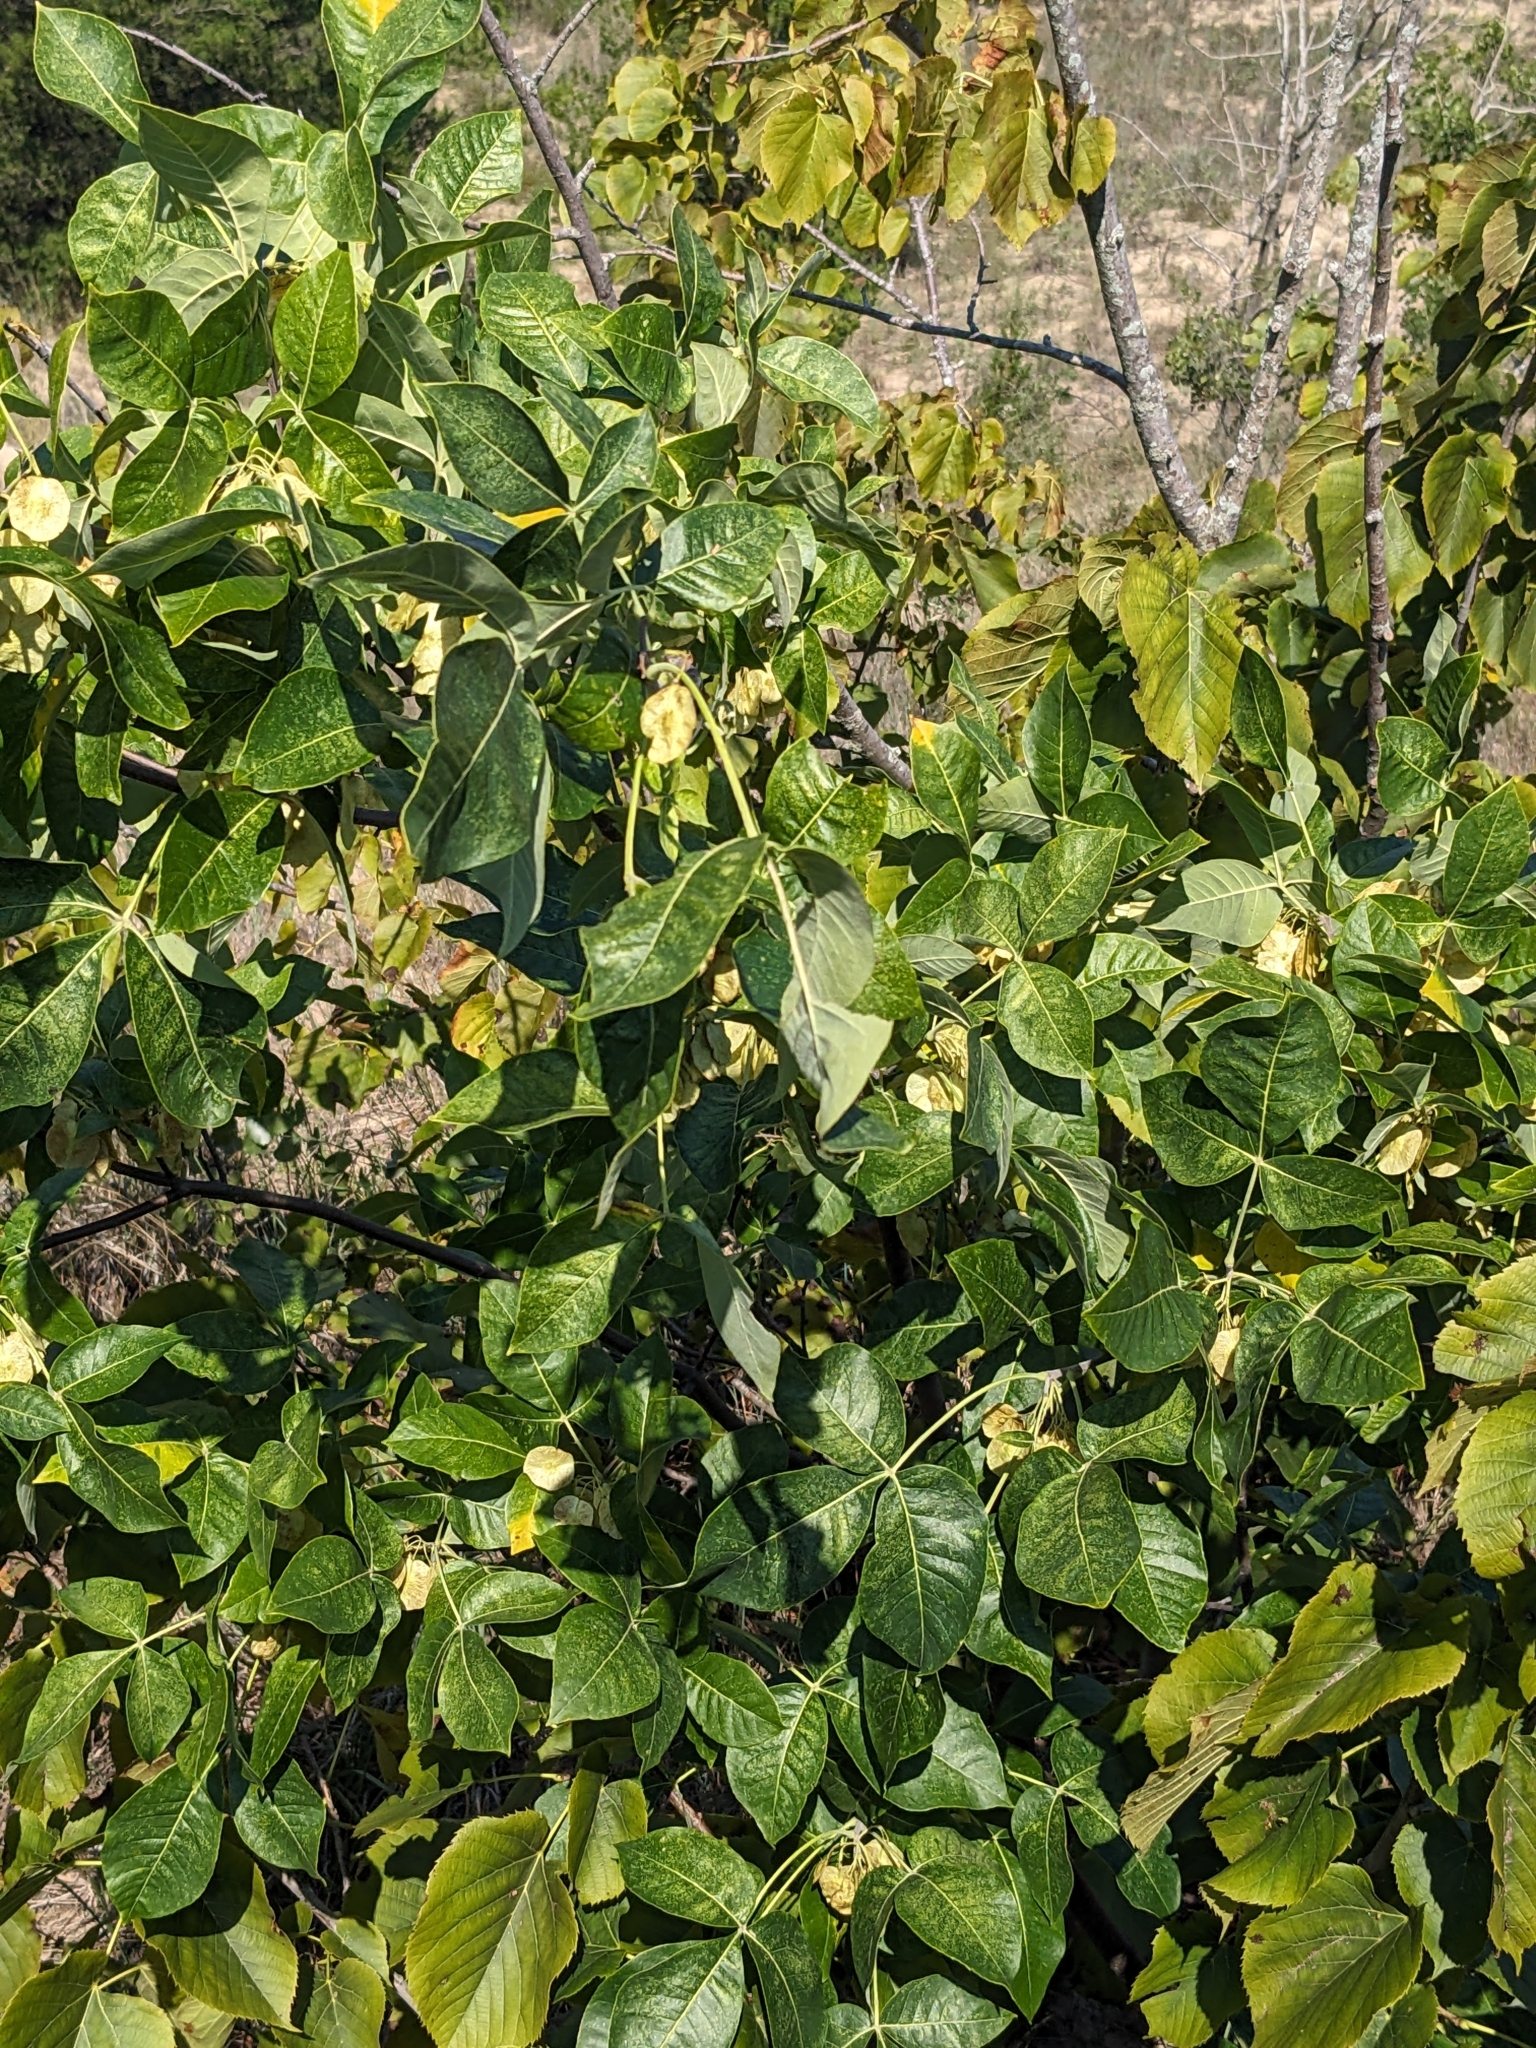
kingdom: Plantae
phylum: Tracheophyta
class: Magnoliopsida
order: Sapindales
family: Rutaceae
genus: Ptelea
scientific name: Ptelea trifoliata
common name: Common hop-tree
